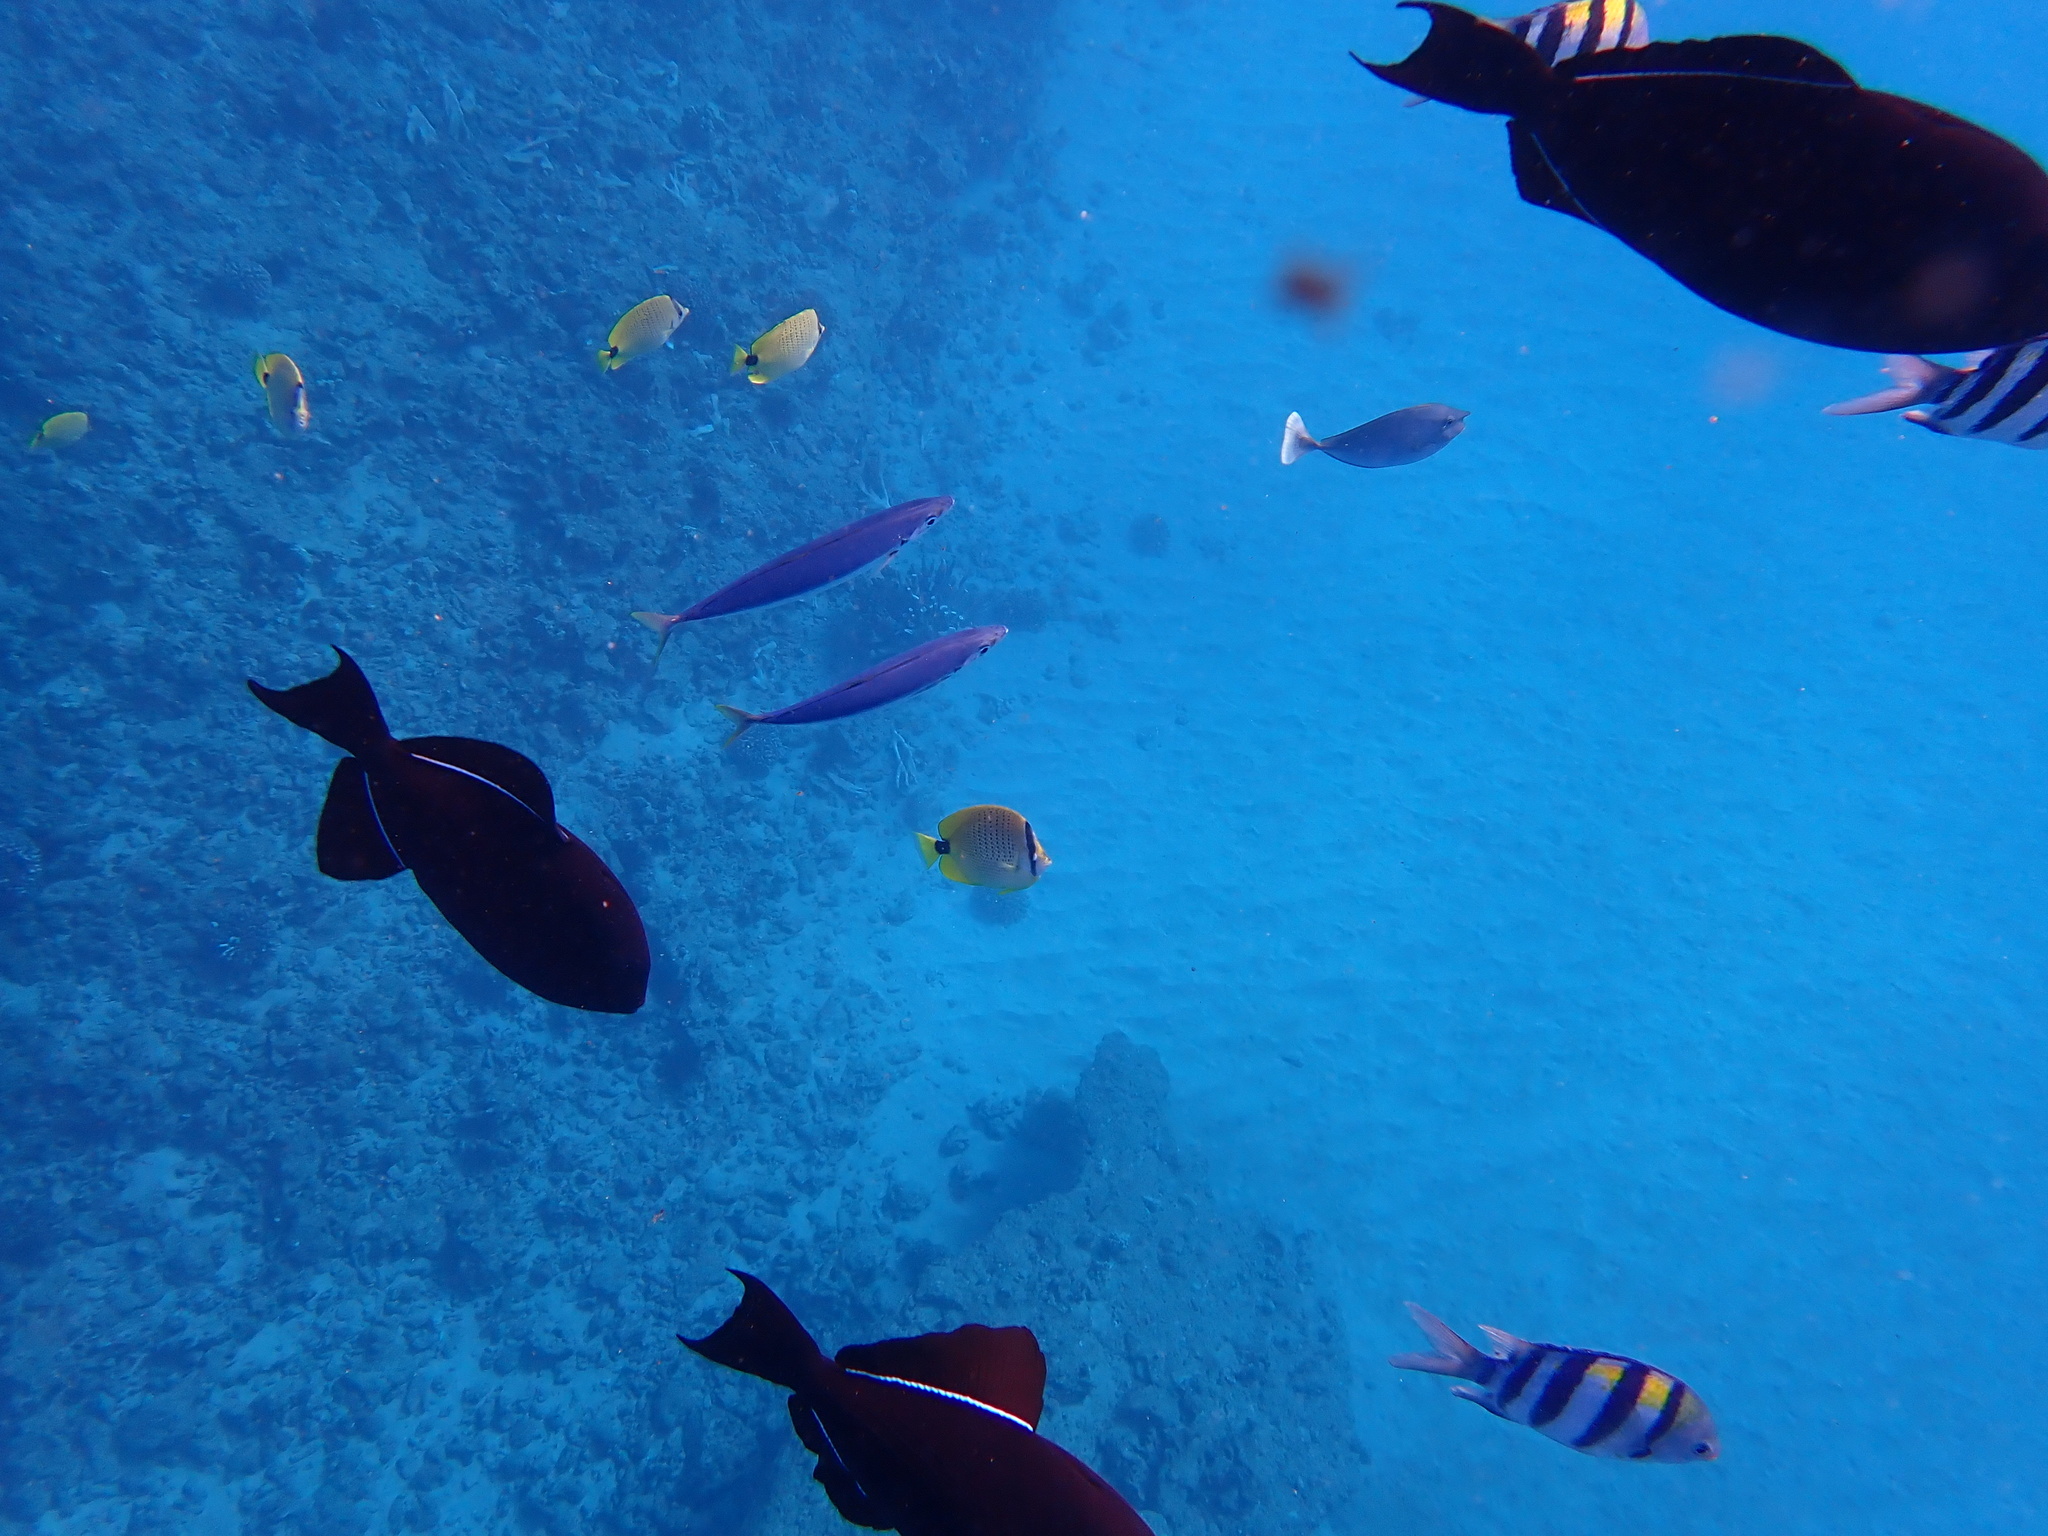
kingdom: Animalia
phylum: Chordata
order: Perciformes
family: Carangidae
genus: Decapterus
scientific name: Decapterus macarellus
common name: Mackerel scad
